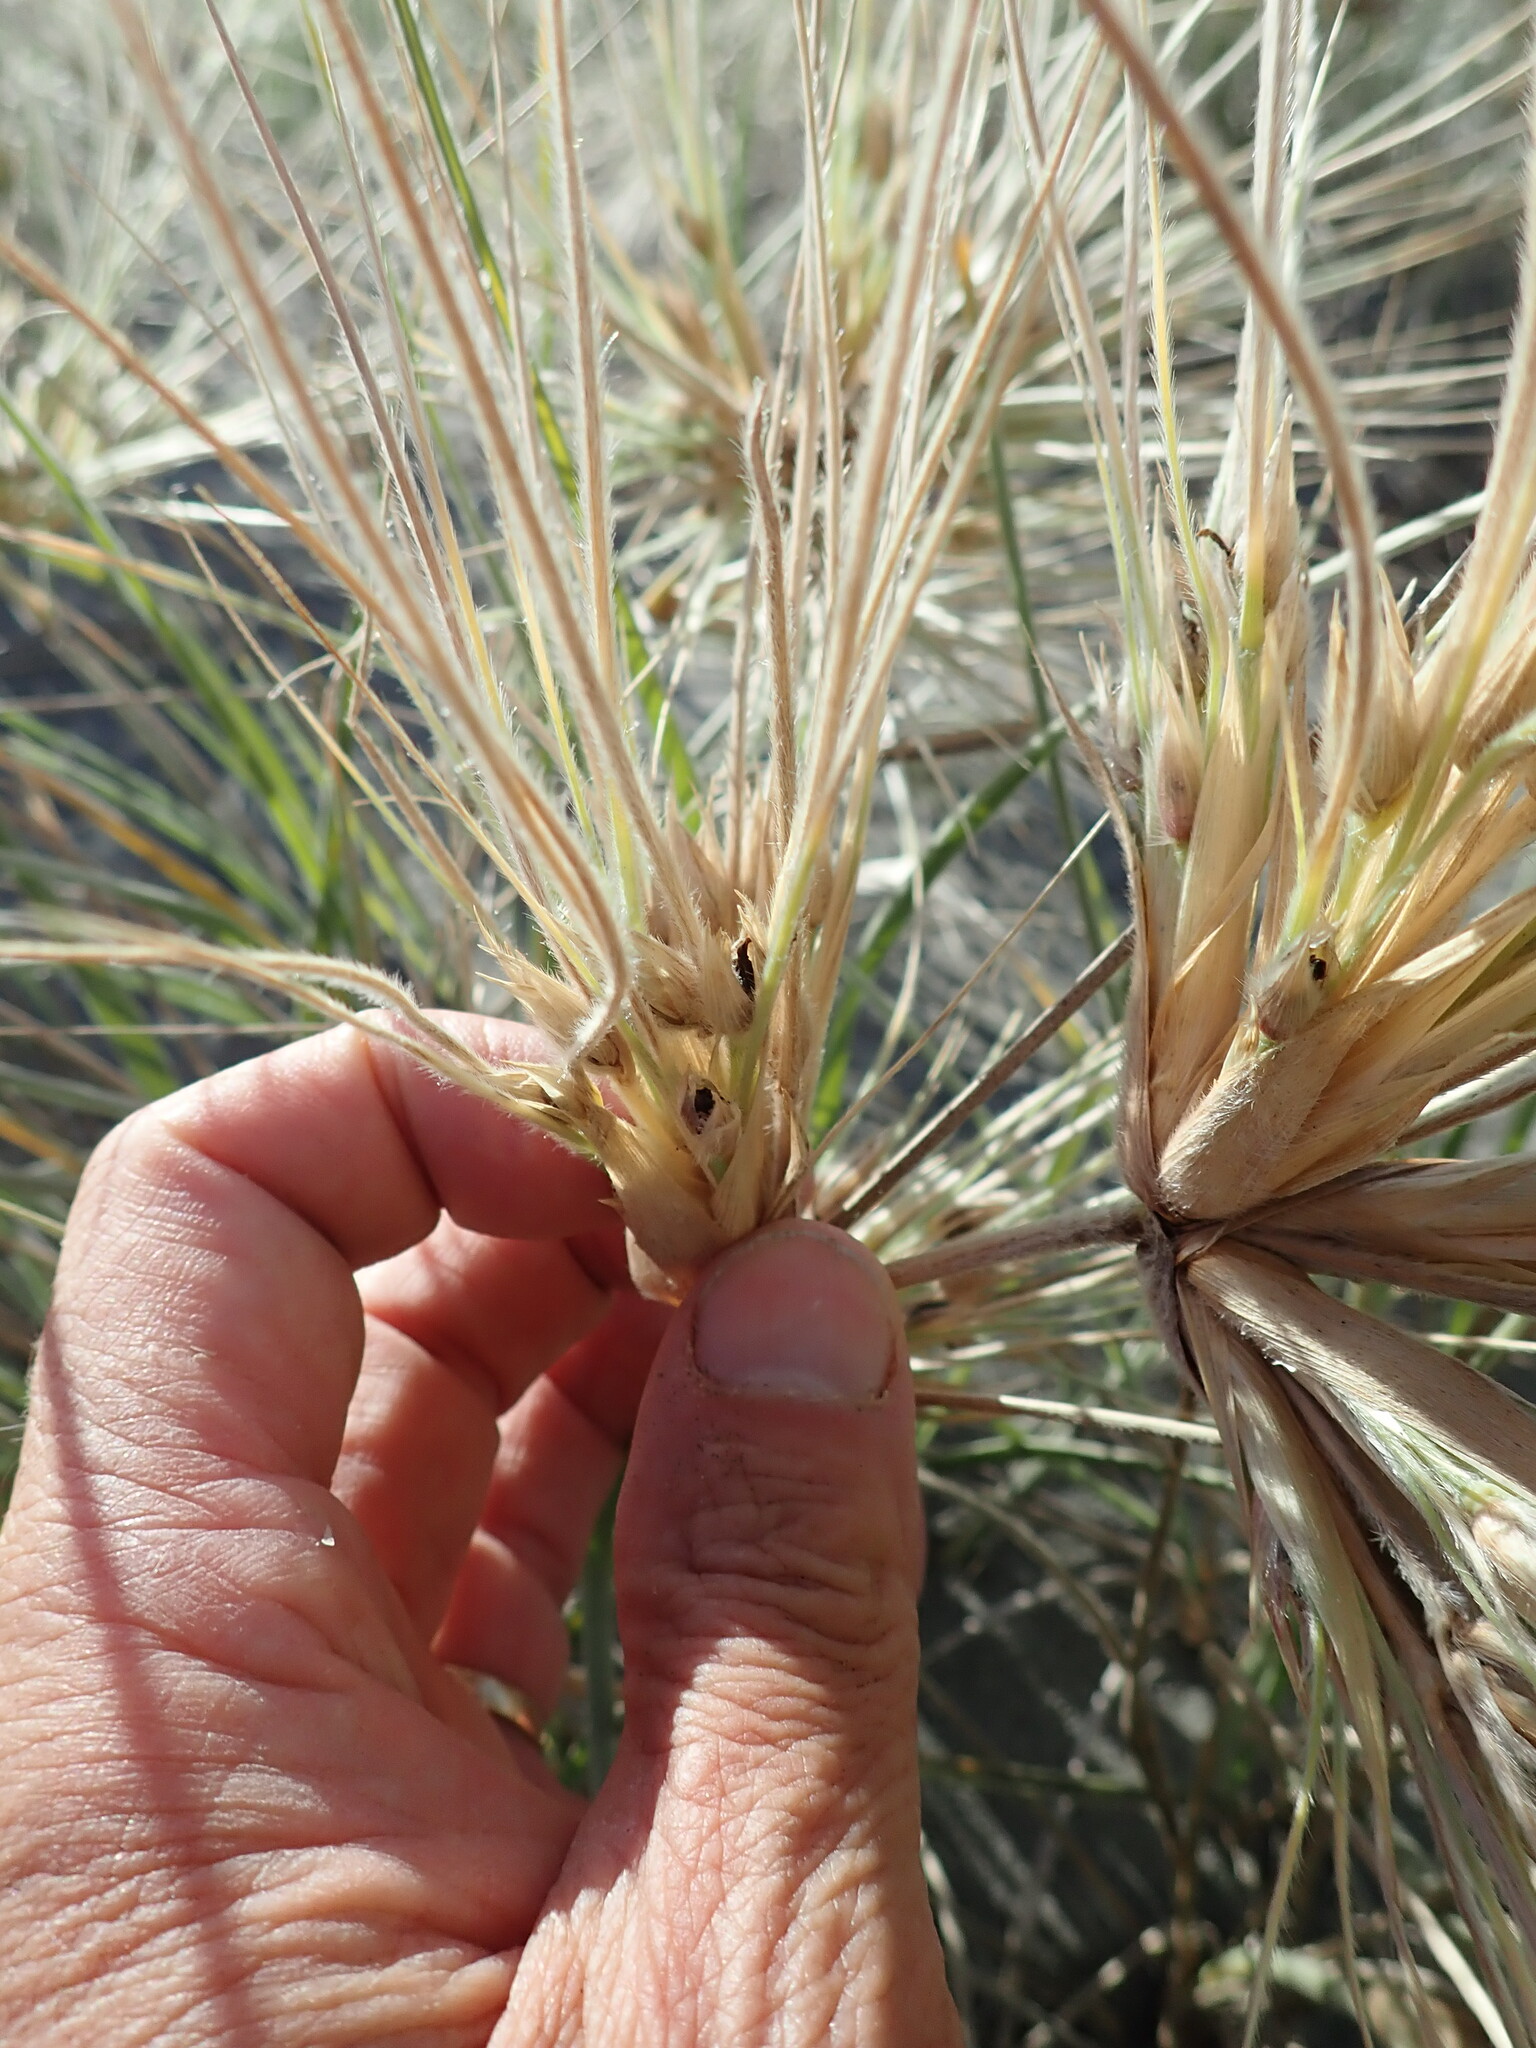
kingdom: Plantae
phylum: Tracheophyta
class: Liliopsida
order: Poales
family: Poaceae
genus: Spinifex
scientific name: Spinifex sericeus
